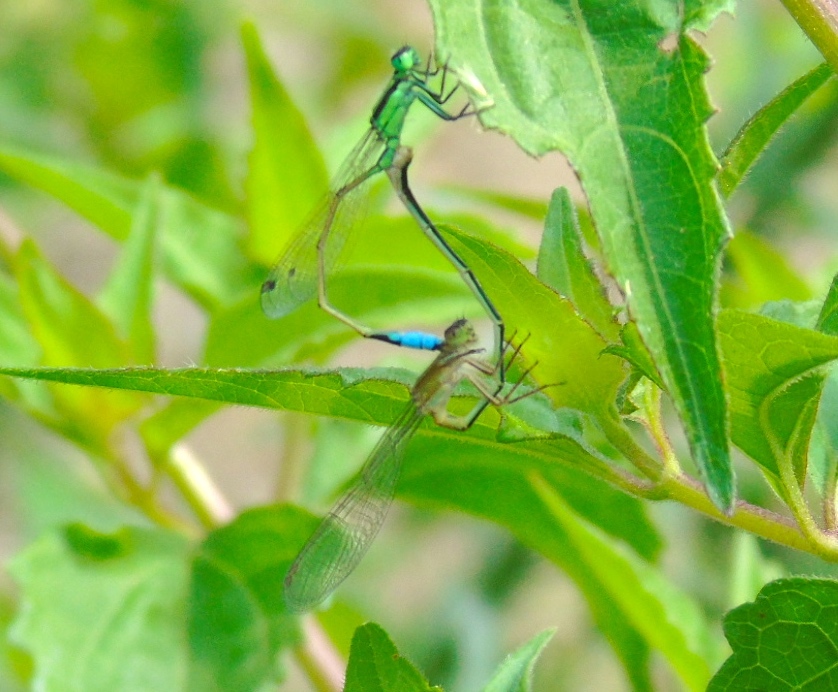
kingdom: Animalia
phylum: Arthropoda
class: Insecta
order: Odonata
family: Coenagrionidae
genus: Ischnura
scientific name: Ischnura
